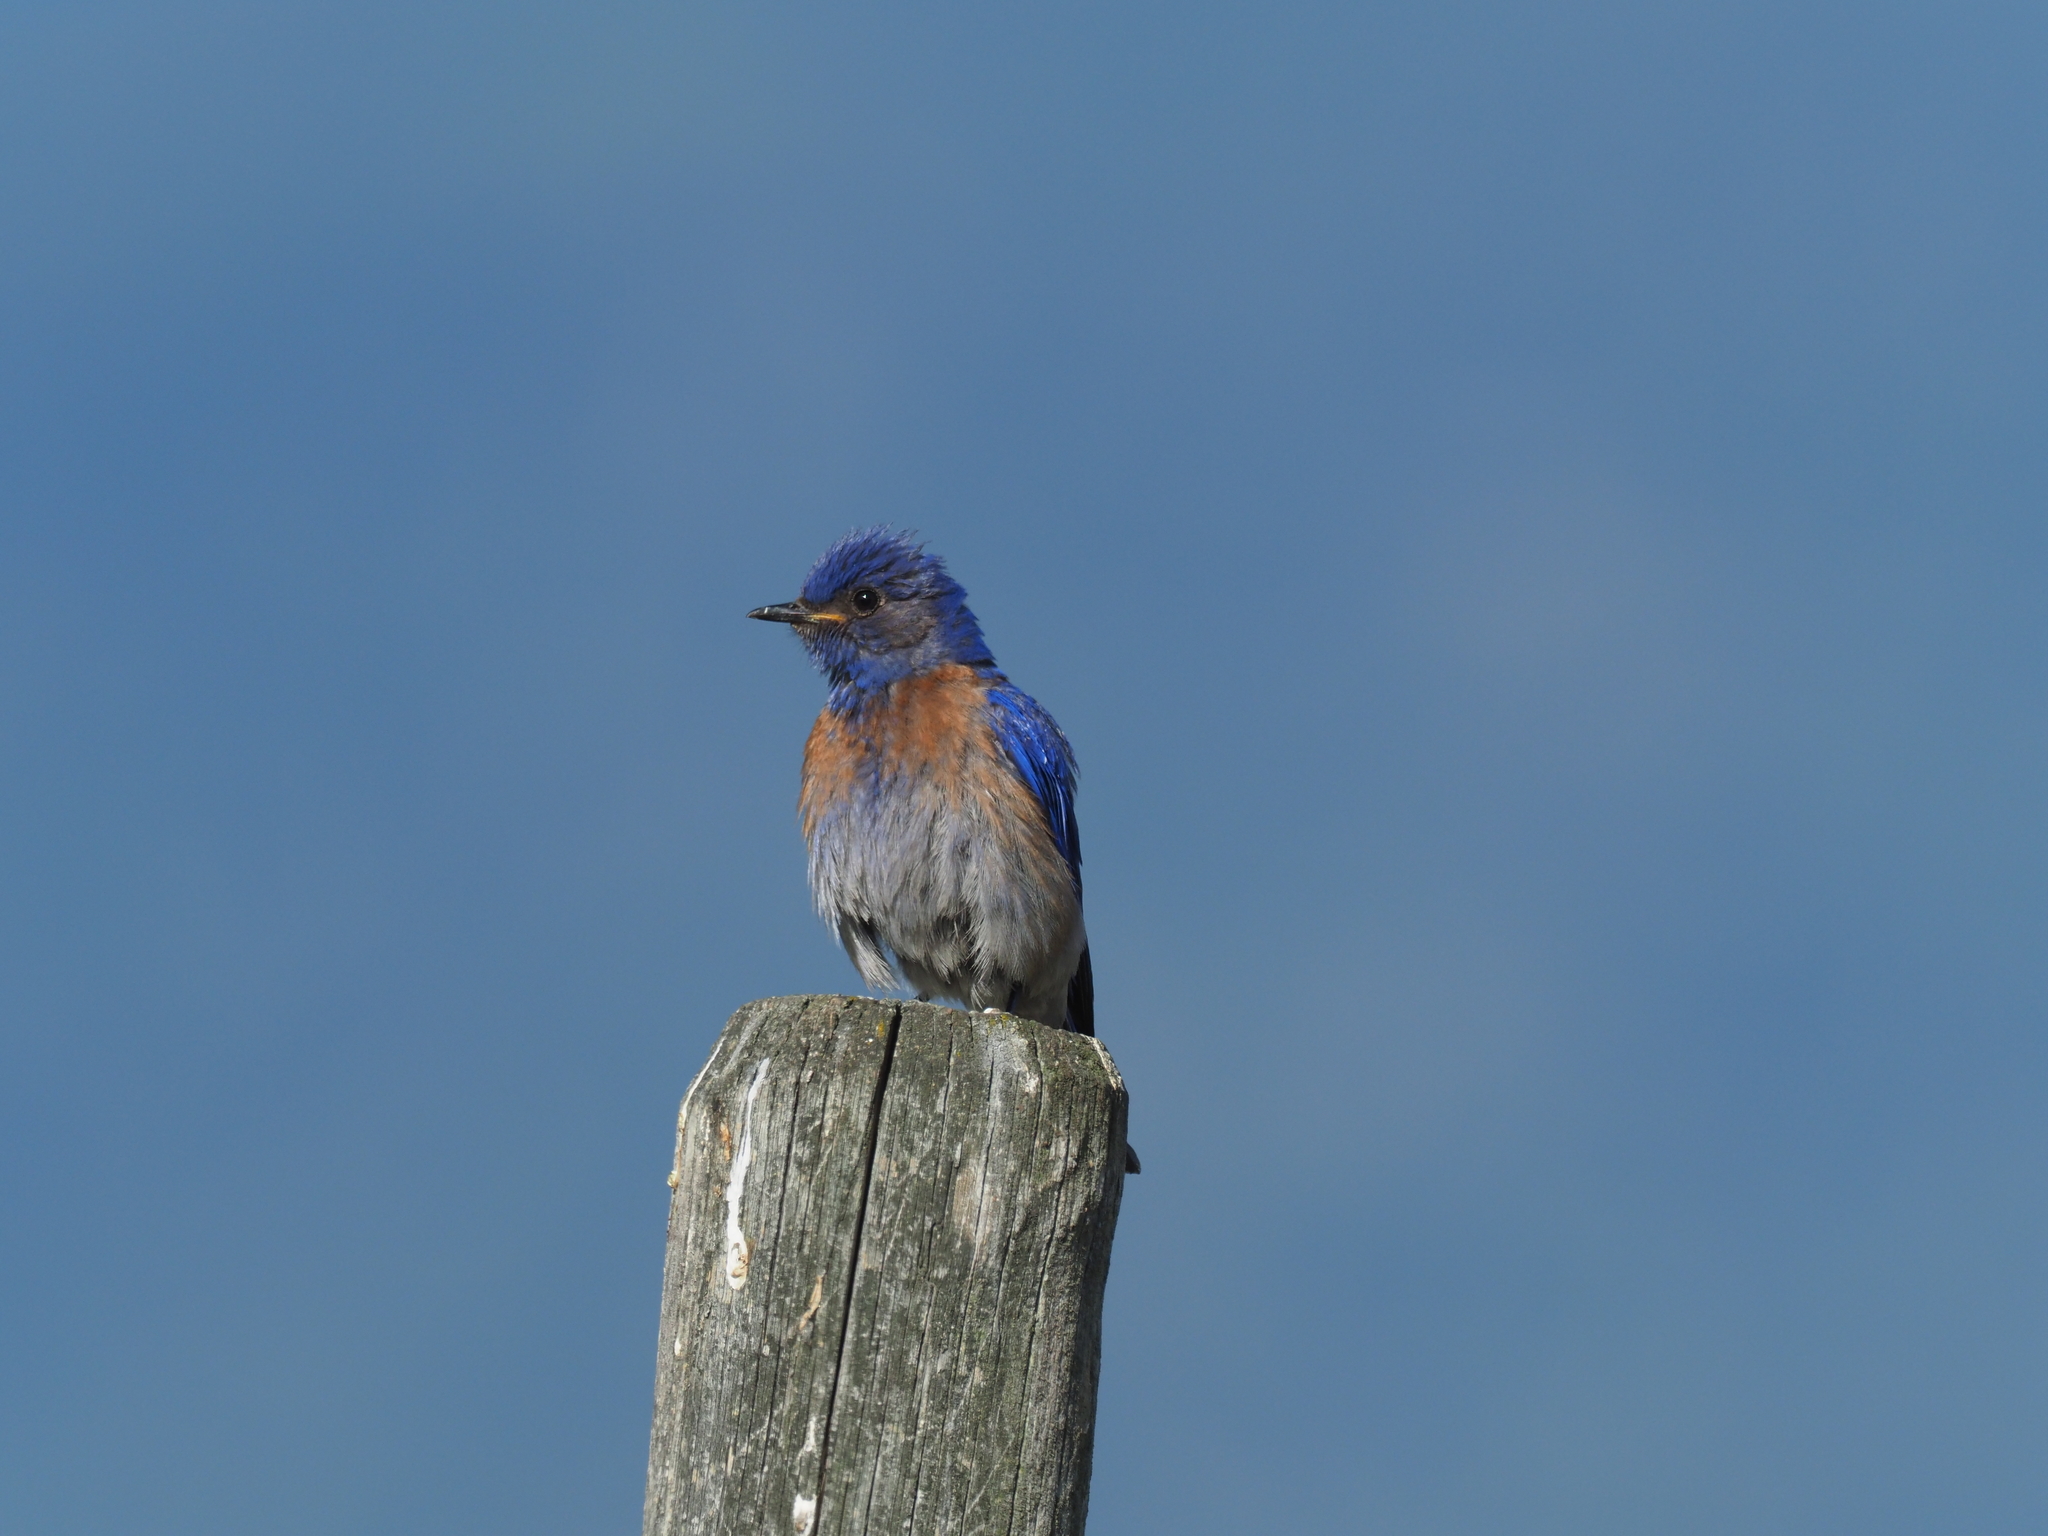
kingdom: Animalia
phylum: Chordata
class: Aves
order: Passeriformes
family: Turdidae
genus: Sialia
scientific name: Sialia mexicana
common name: Western bluebird
